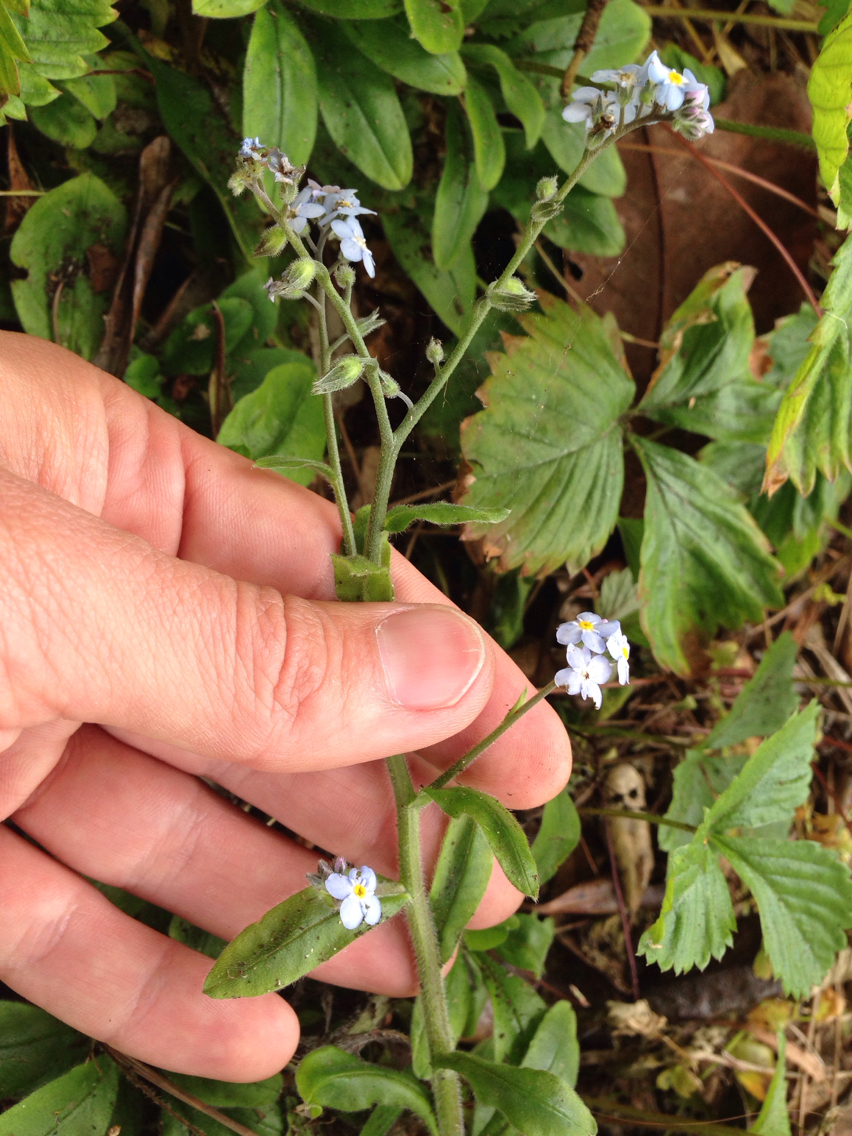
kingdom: Plantae
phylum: Tracheophyta
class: Magnoliopsida
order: Boraginales
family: Boraginaceae
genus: Myosotis
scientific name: Myosotis latifolia
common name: Broadleaf forget-me-not
